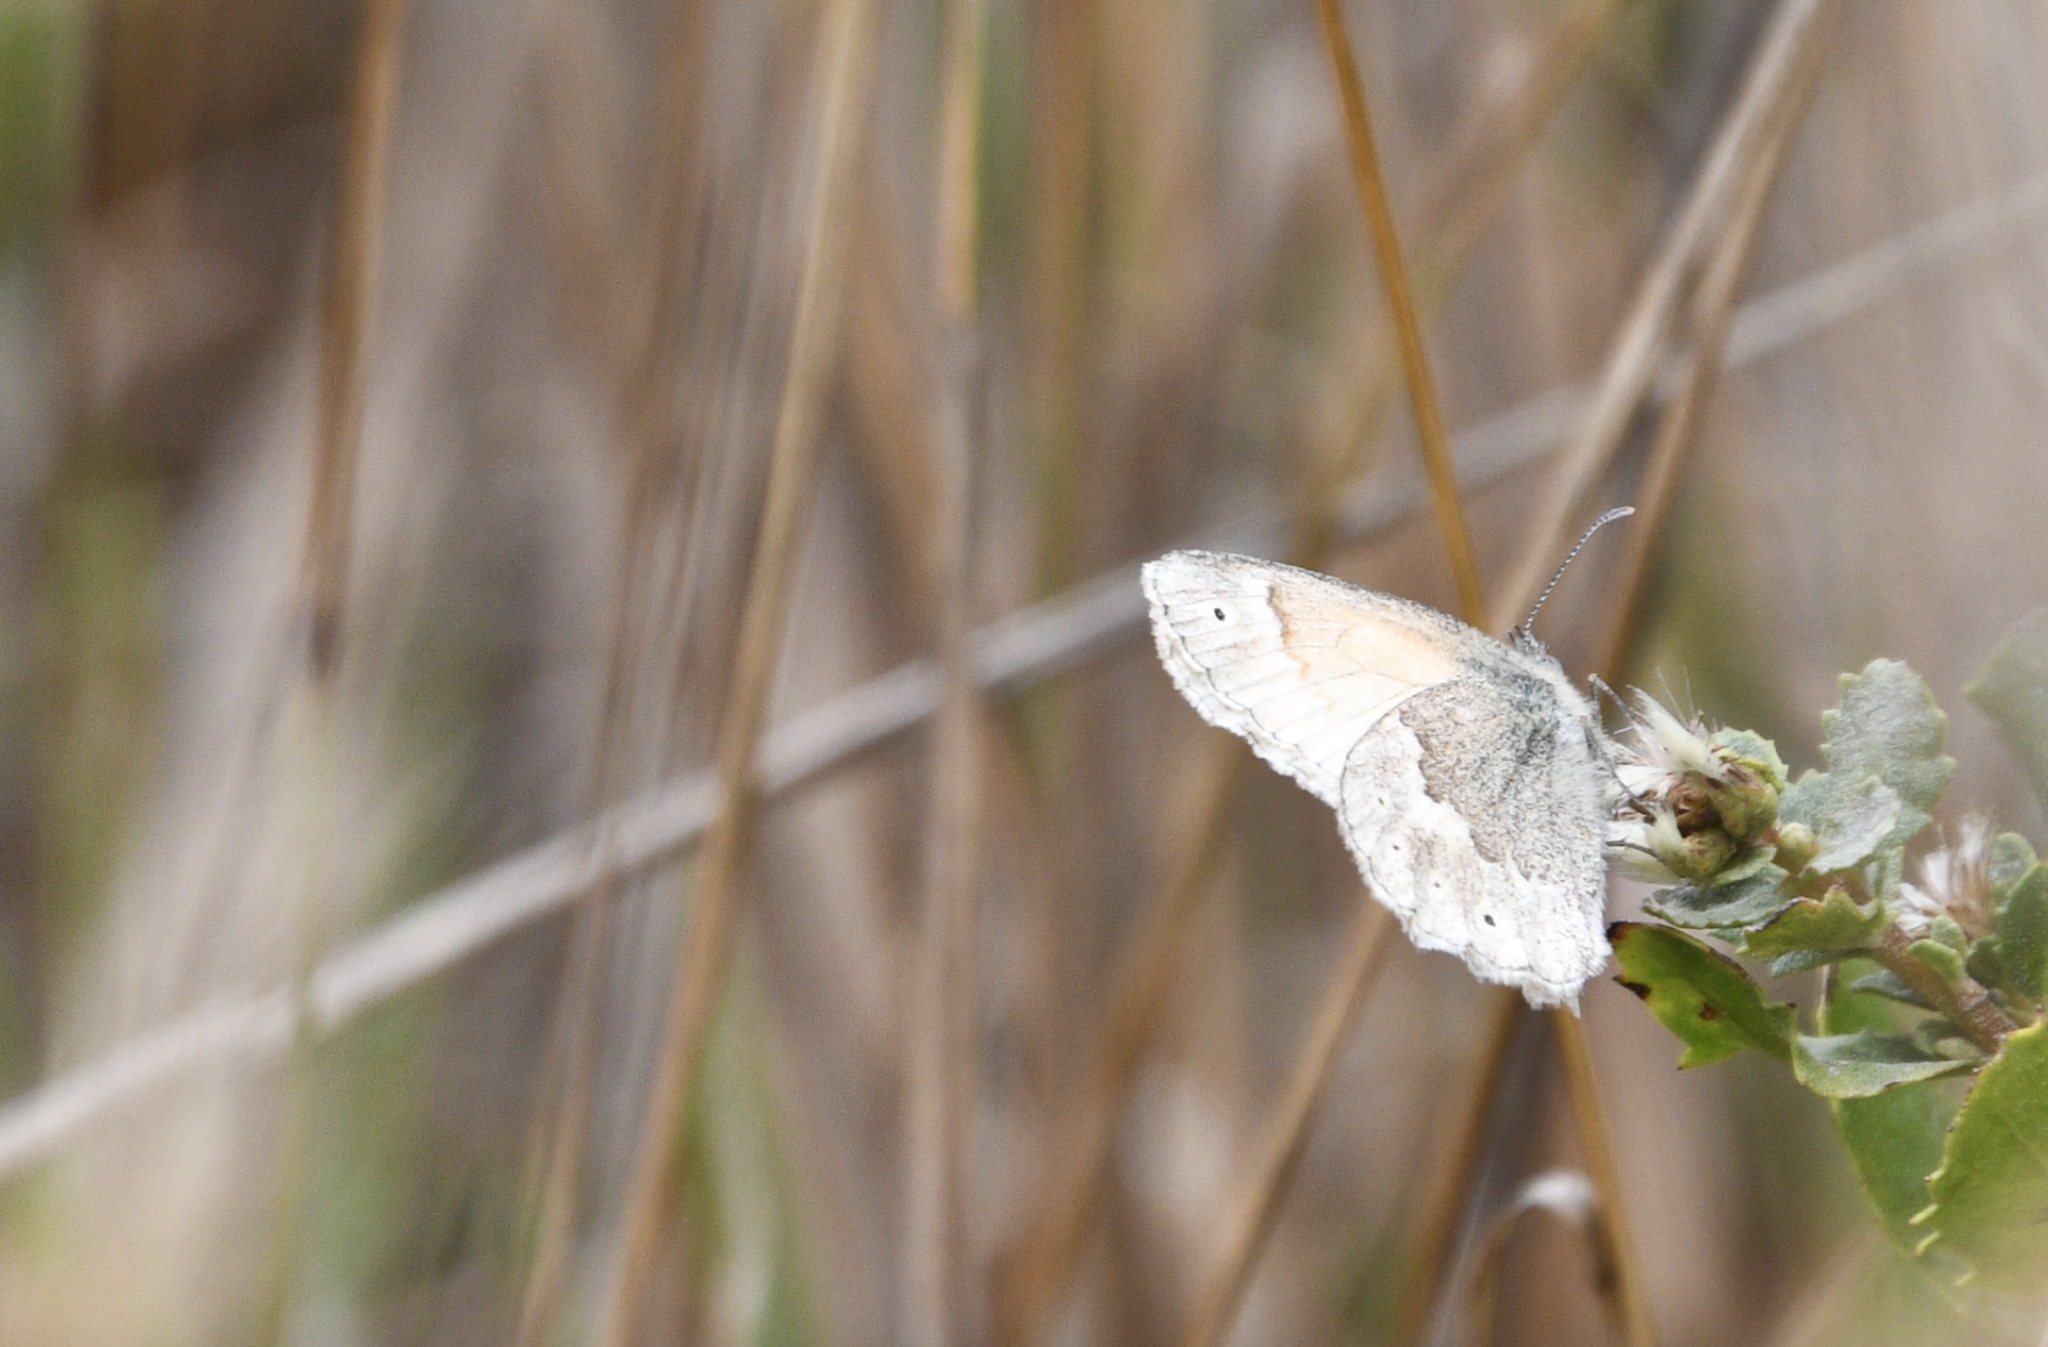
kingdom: Animalia
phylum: Arthropoda
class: Insecta
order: Lepidoptera
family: Nymphalidae
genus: Coenonympha
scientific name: Coenonympha california
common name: Common ringlet
